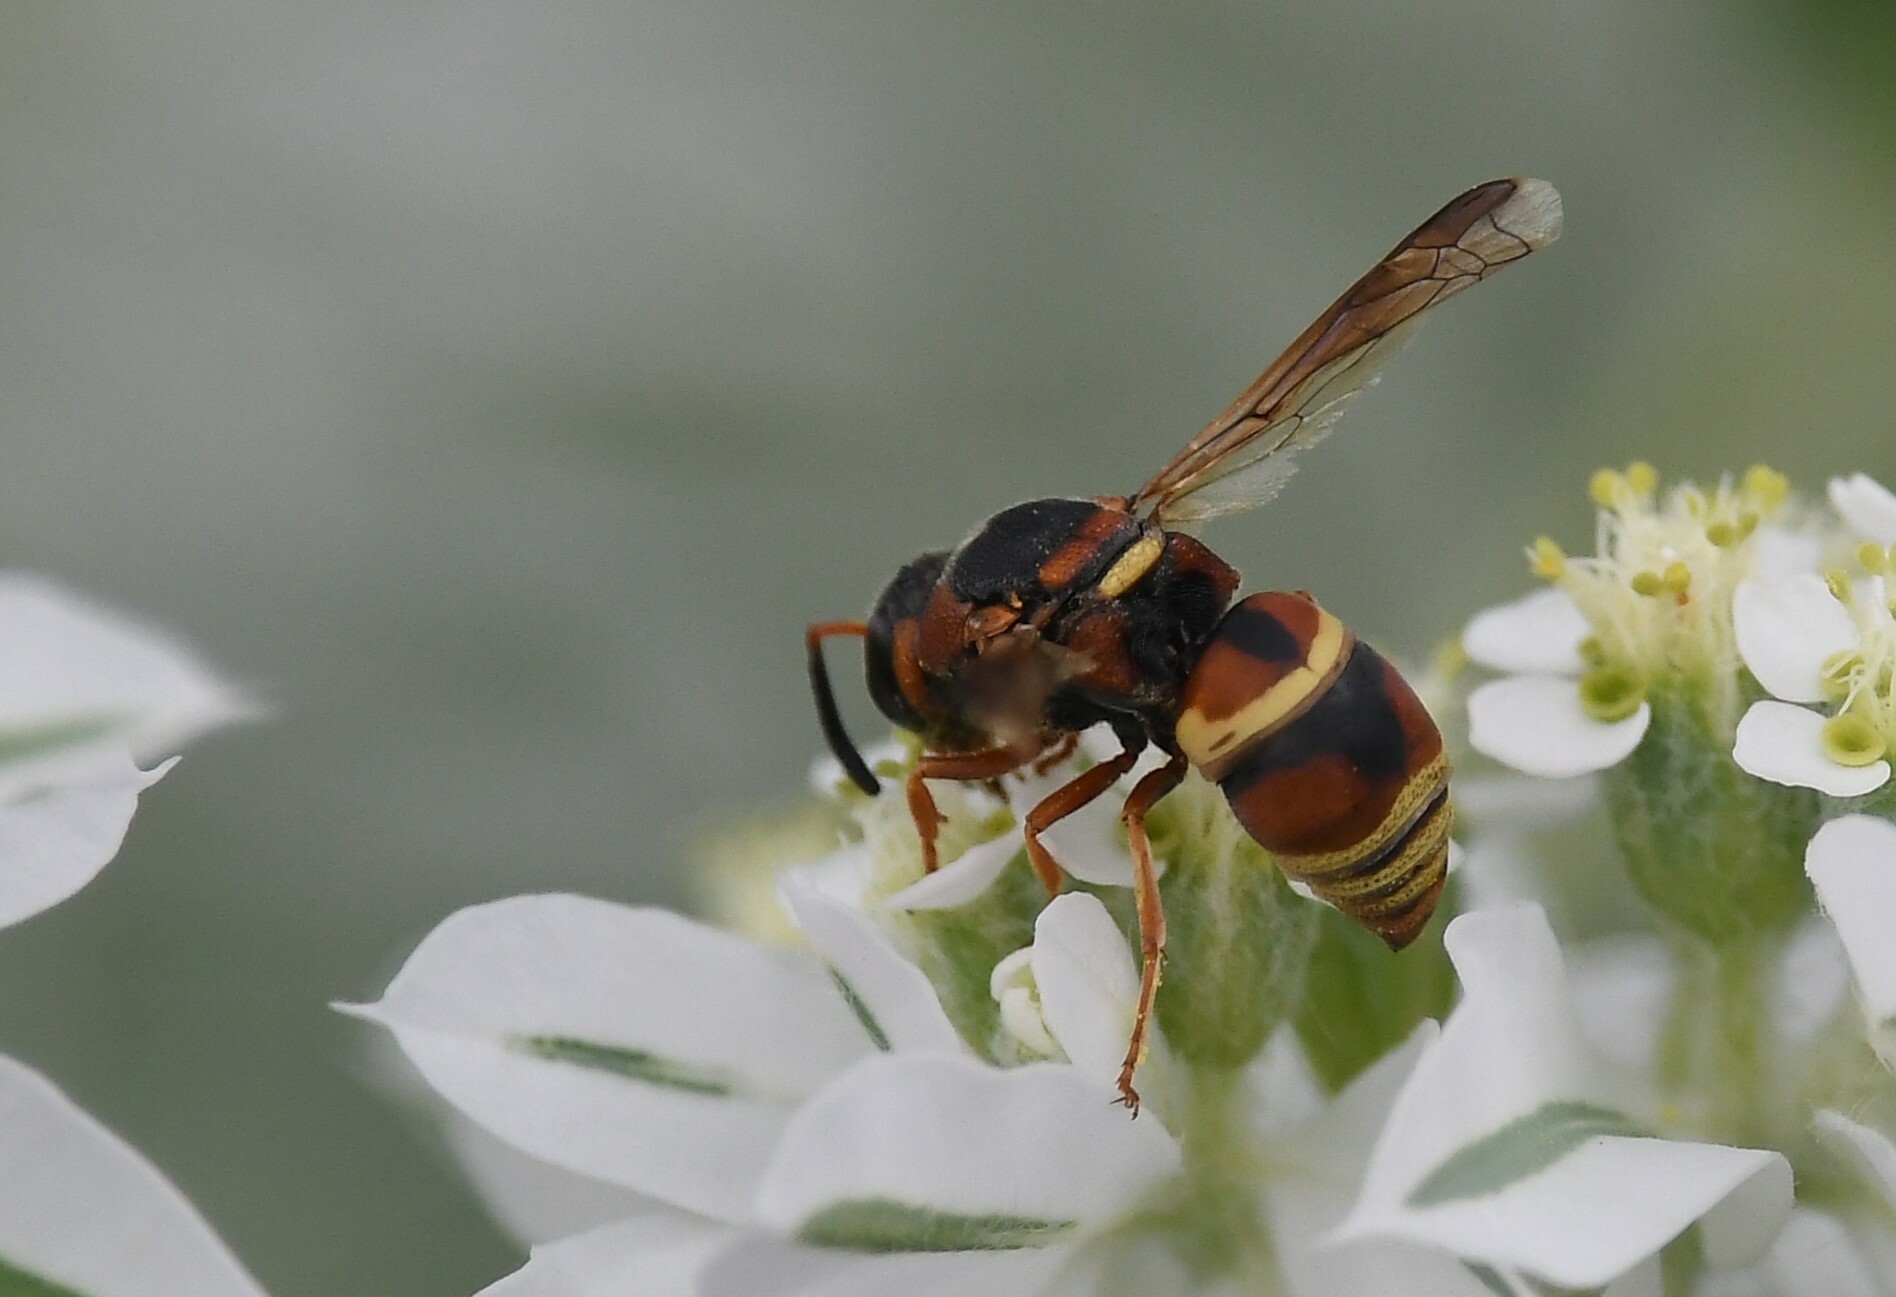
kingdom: Animalia
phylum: Arthropoda
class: Insecta
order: Hymenoptera
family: Eumenidae
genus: Euodynerus
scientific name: Euodynerus hidalgo
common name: Wasp
